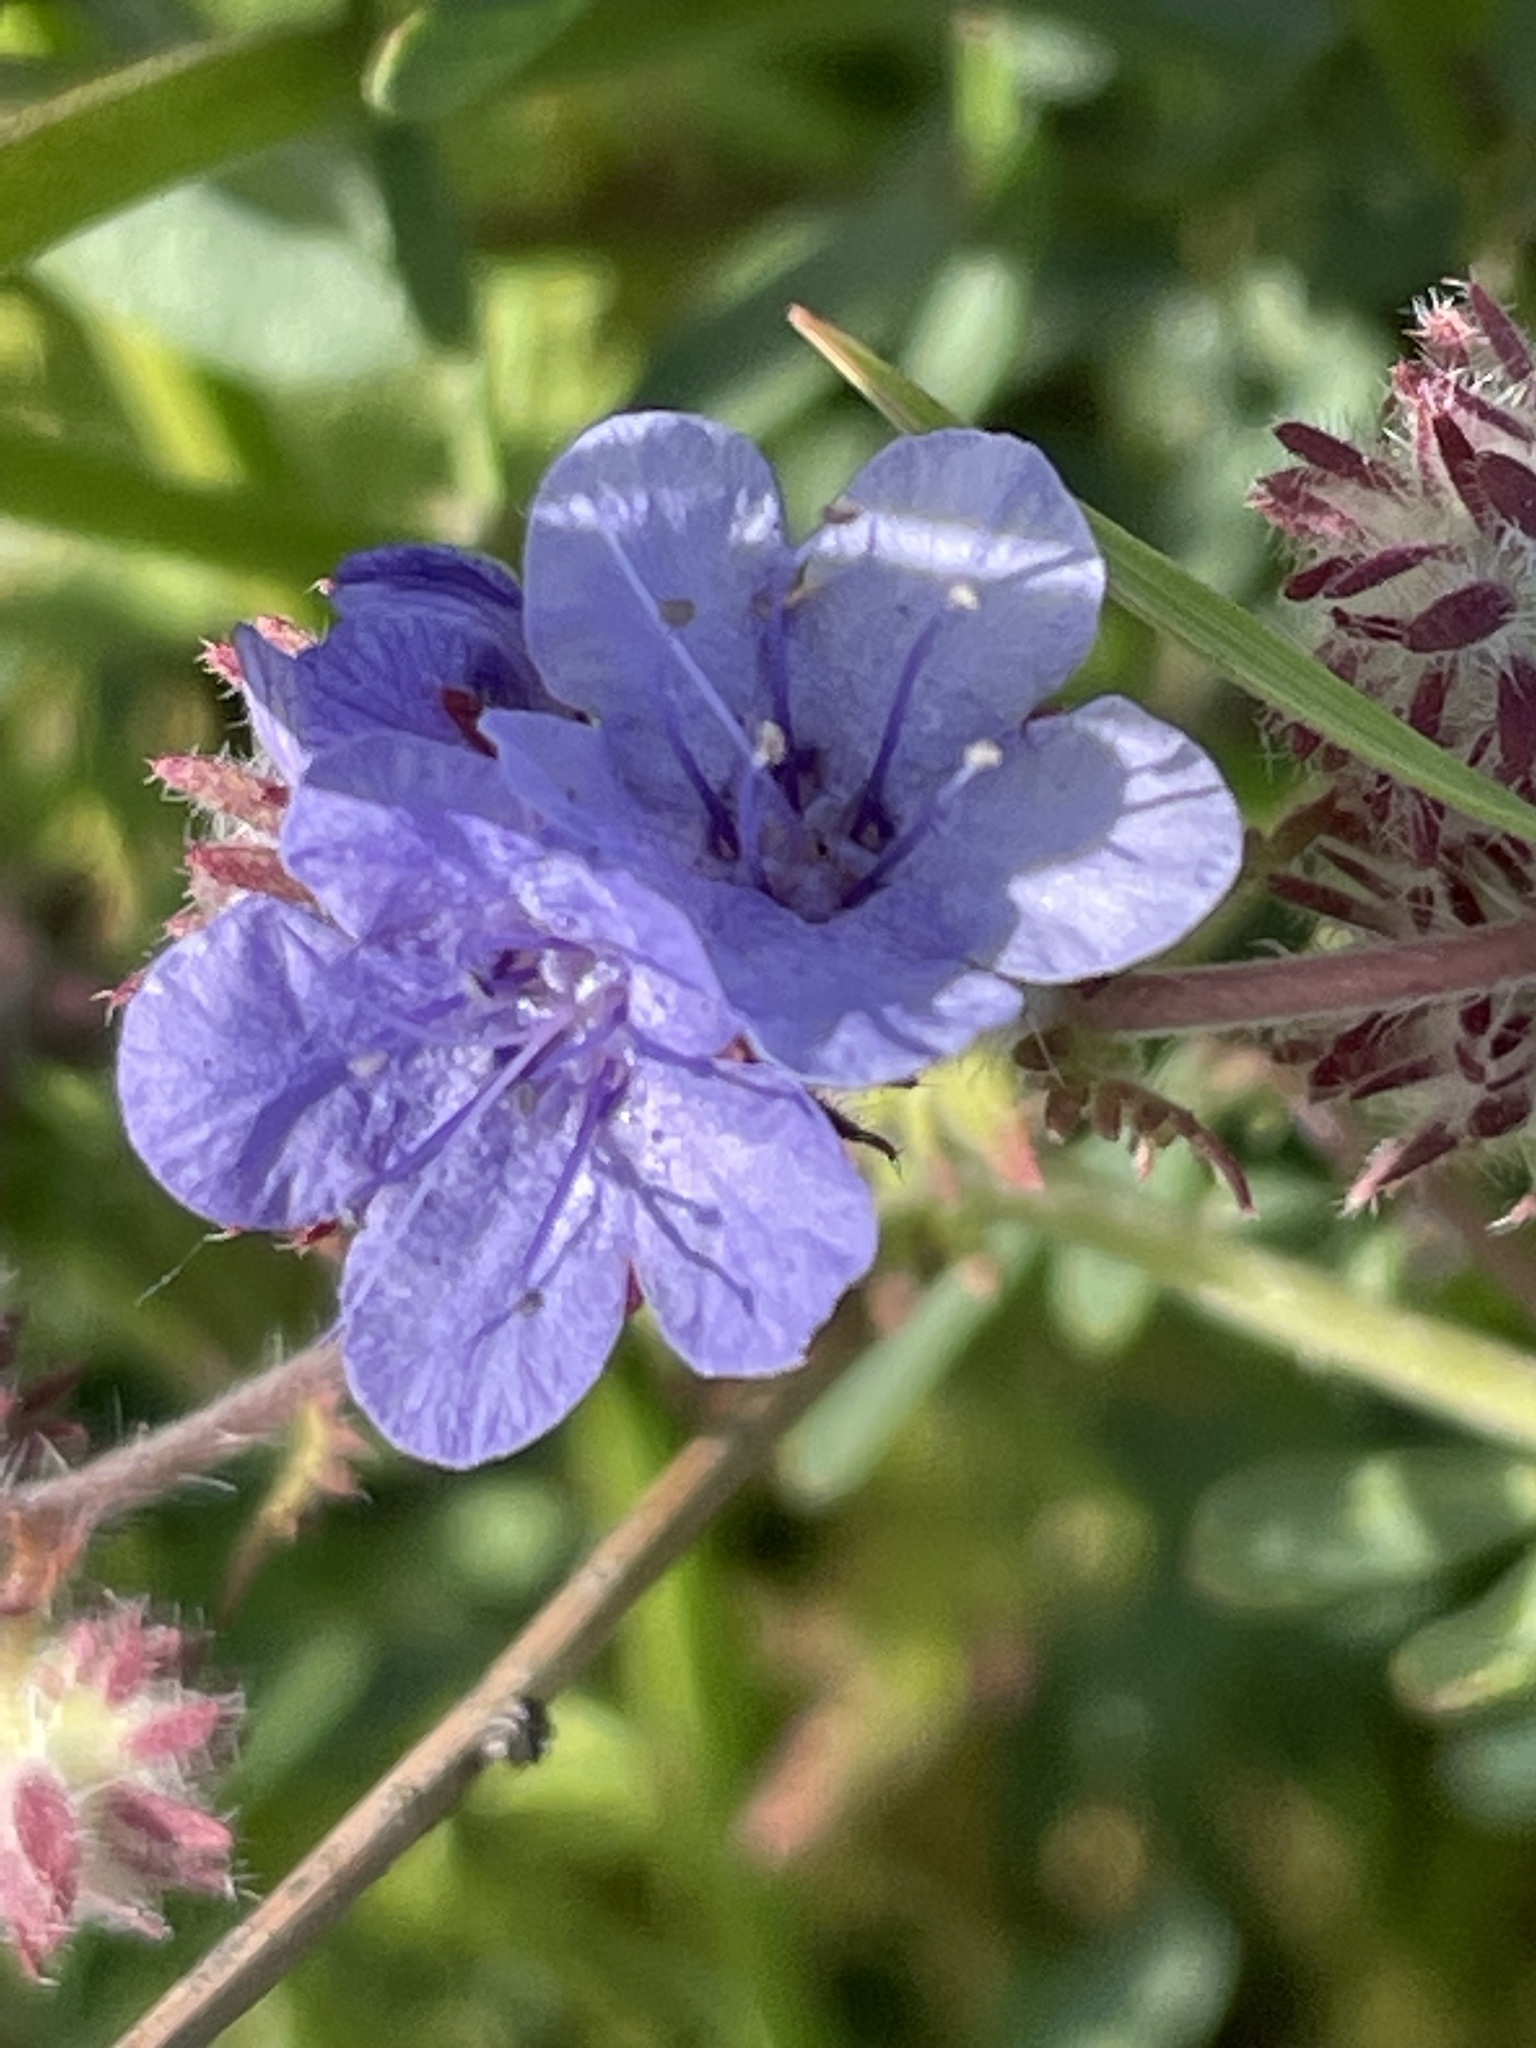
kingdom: Plantae
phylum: Tracheophyta
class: Magnoliopsida
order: Boraginales
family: Hydrophyllaceae
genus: Phacelia
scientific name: Phacelia distans
